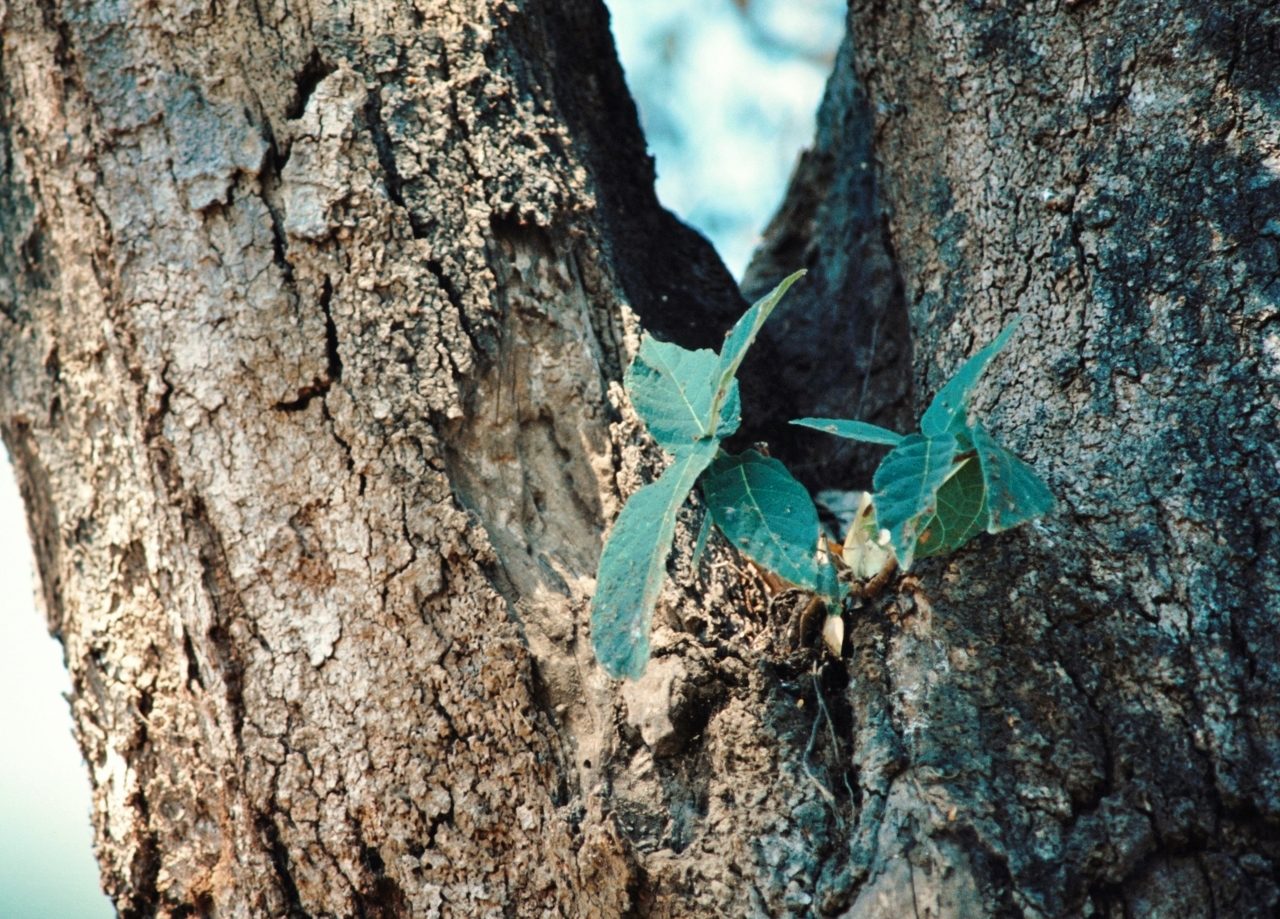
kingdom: Plantae
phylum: Tracheophyta
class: Magnoliopsida
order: Rosales
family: Moraceae
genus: Ficus
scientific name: Ficus bussei
